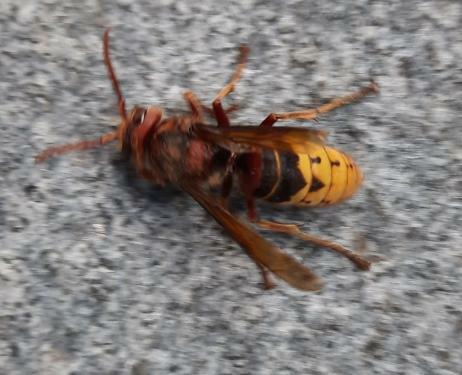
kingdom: Animalia
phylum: Arthropoda
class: Insecta
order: Hymenoptera
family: Vespidae
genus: Vespa
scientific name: Vespa crabro
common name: Hornet
